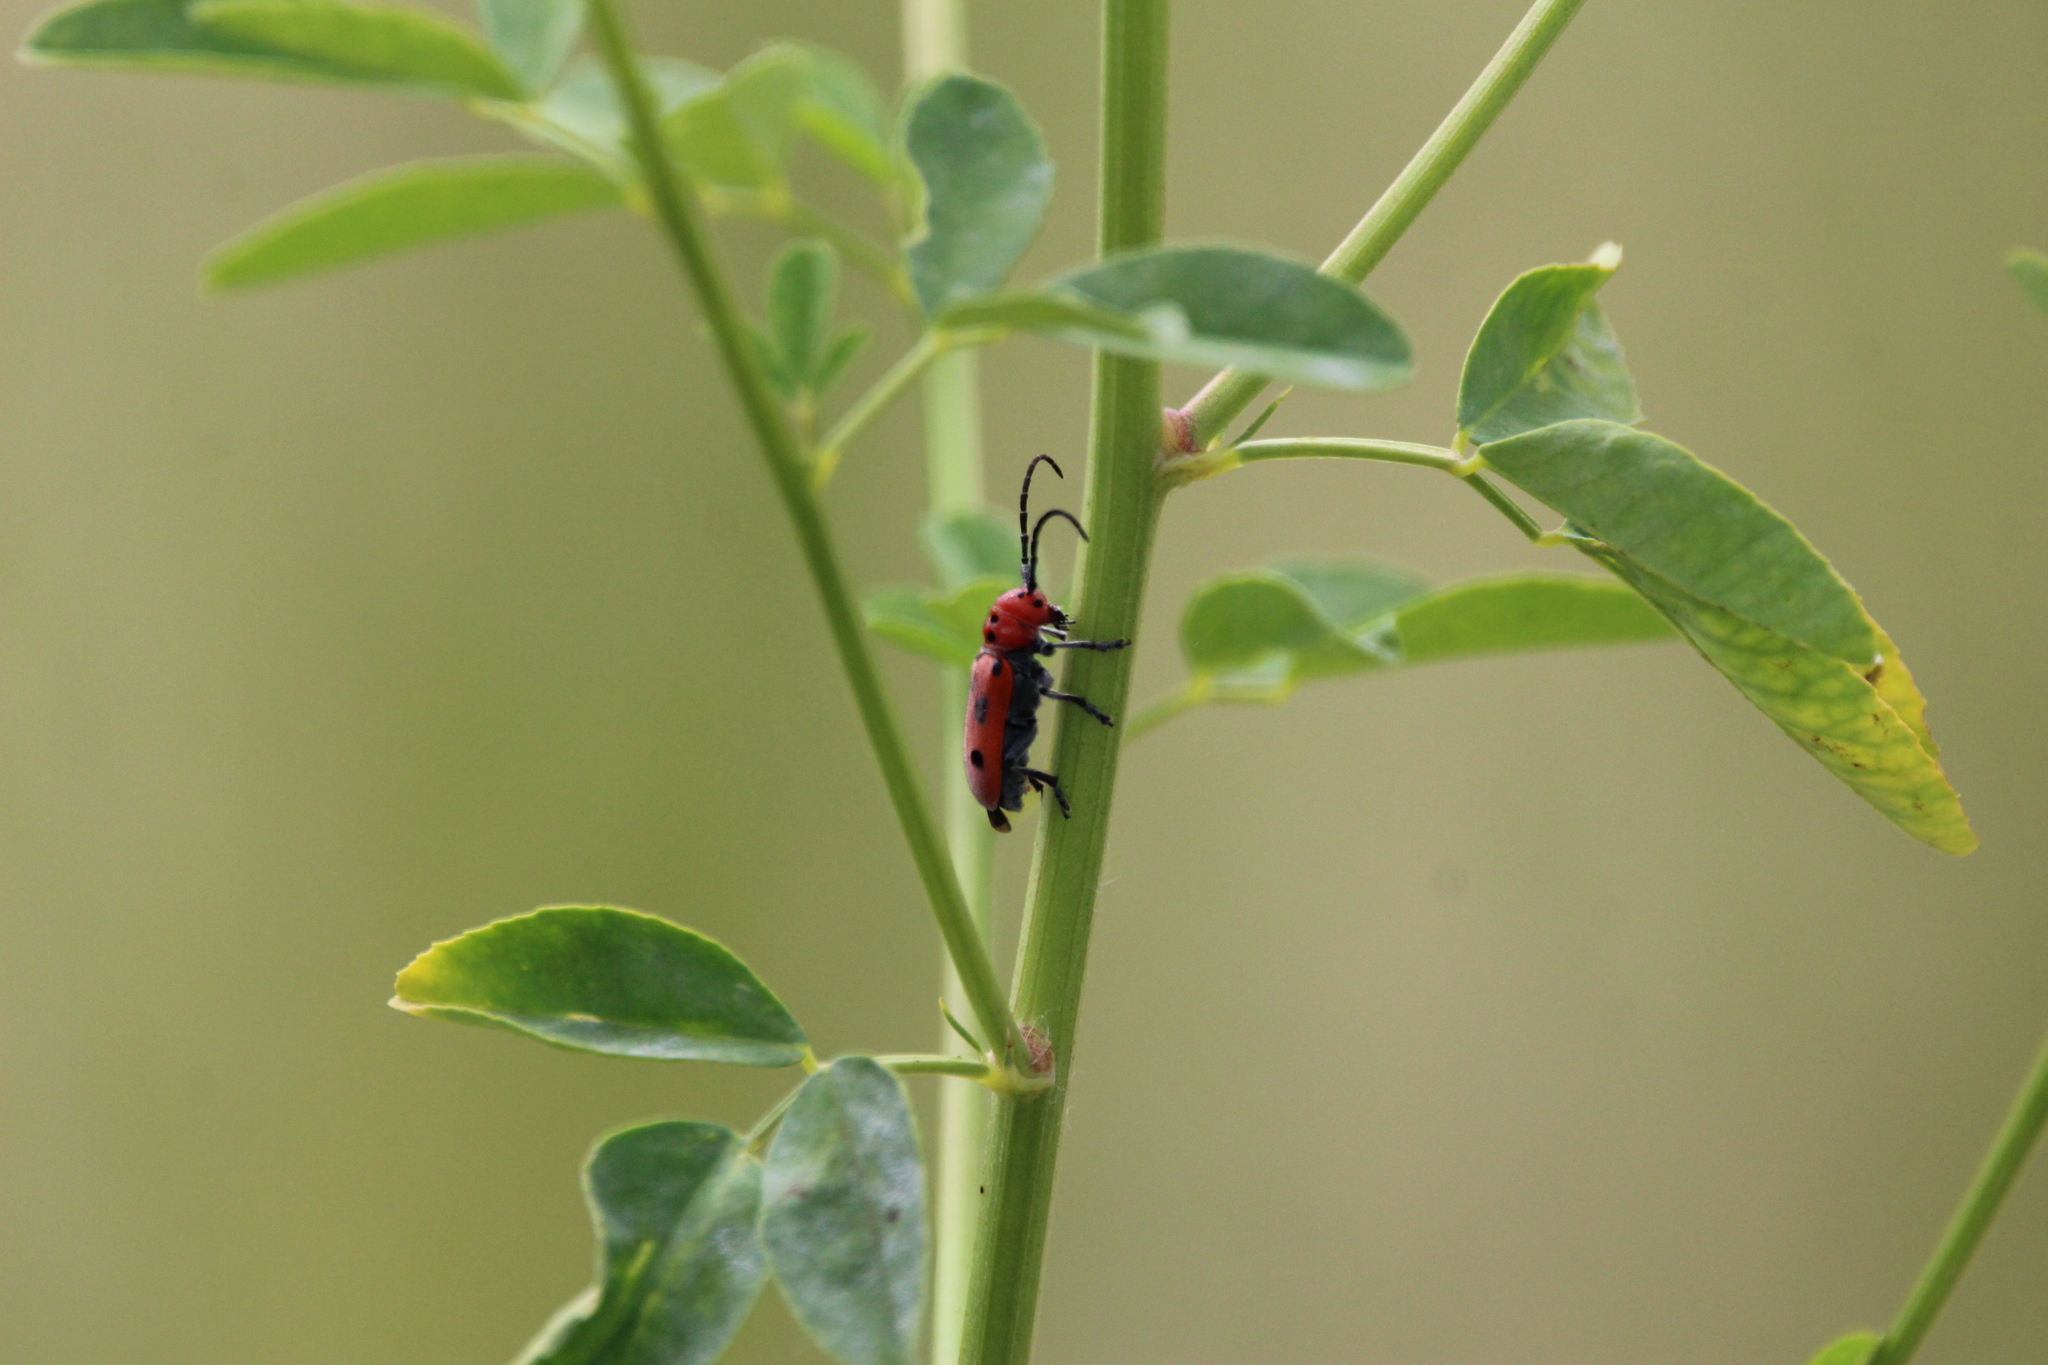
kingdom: Animalia
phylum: Arthropoda
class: Insecta
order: Coleoptera
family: Cerambycidae
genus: Tetraopes
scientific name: Tetraopes tetrophthalmus
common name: Red milkweed beetle
